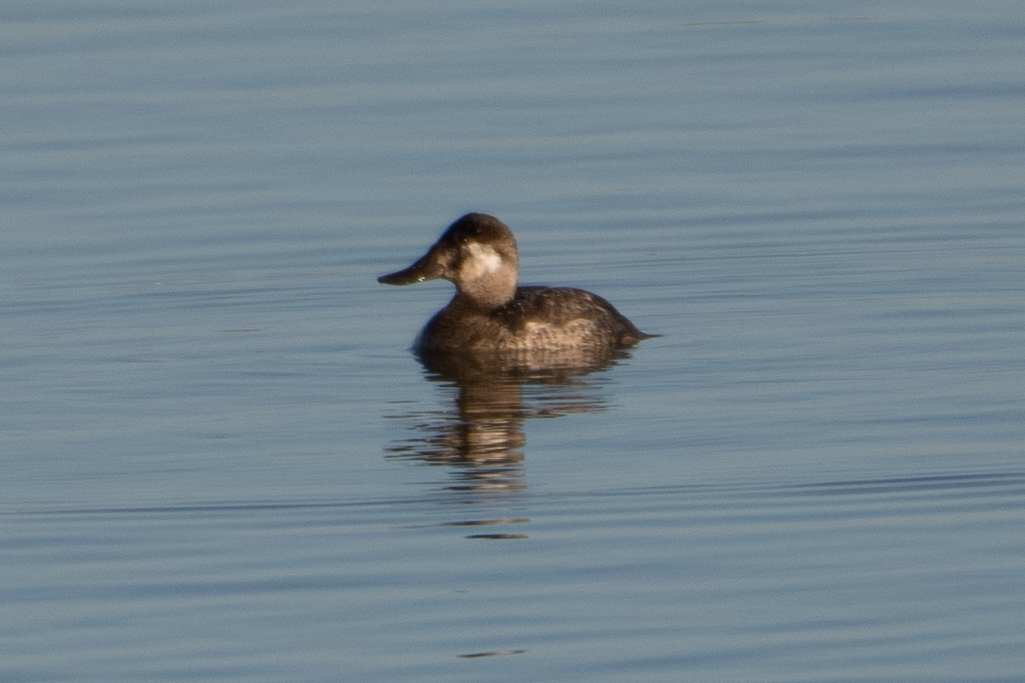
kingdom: Animalia
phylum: Chordata
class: Aves
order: Anseriformes
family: Anatidae
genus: Oxyura
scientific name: Oxyura jamaicensis
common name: Ruddy duck
